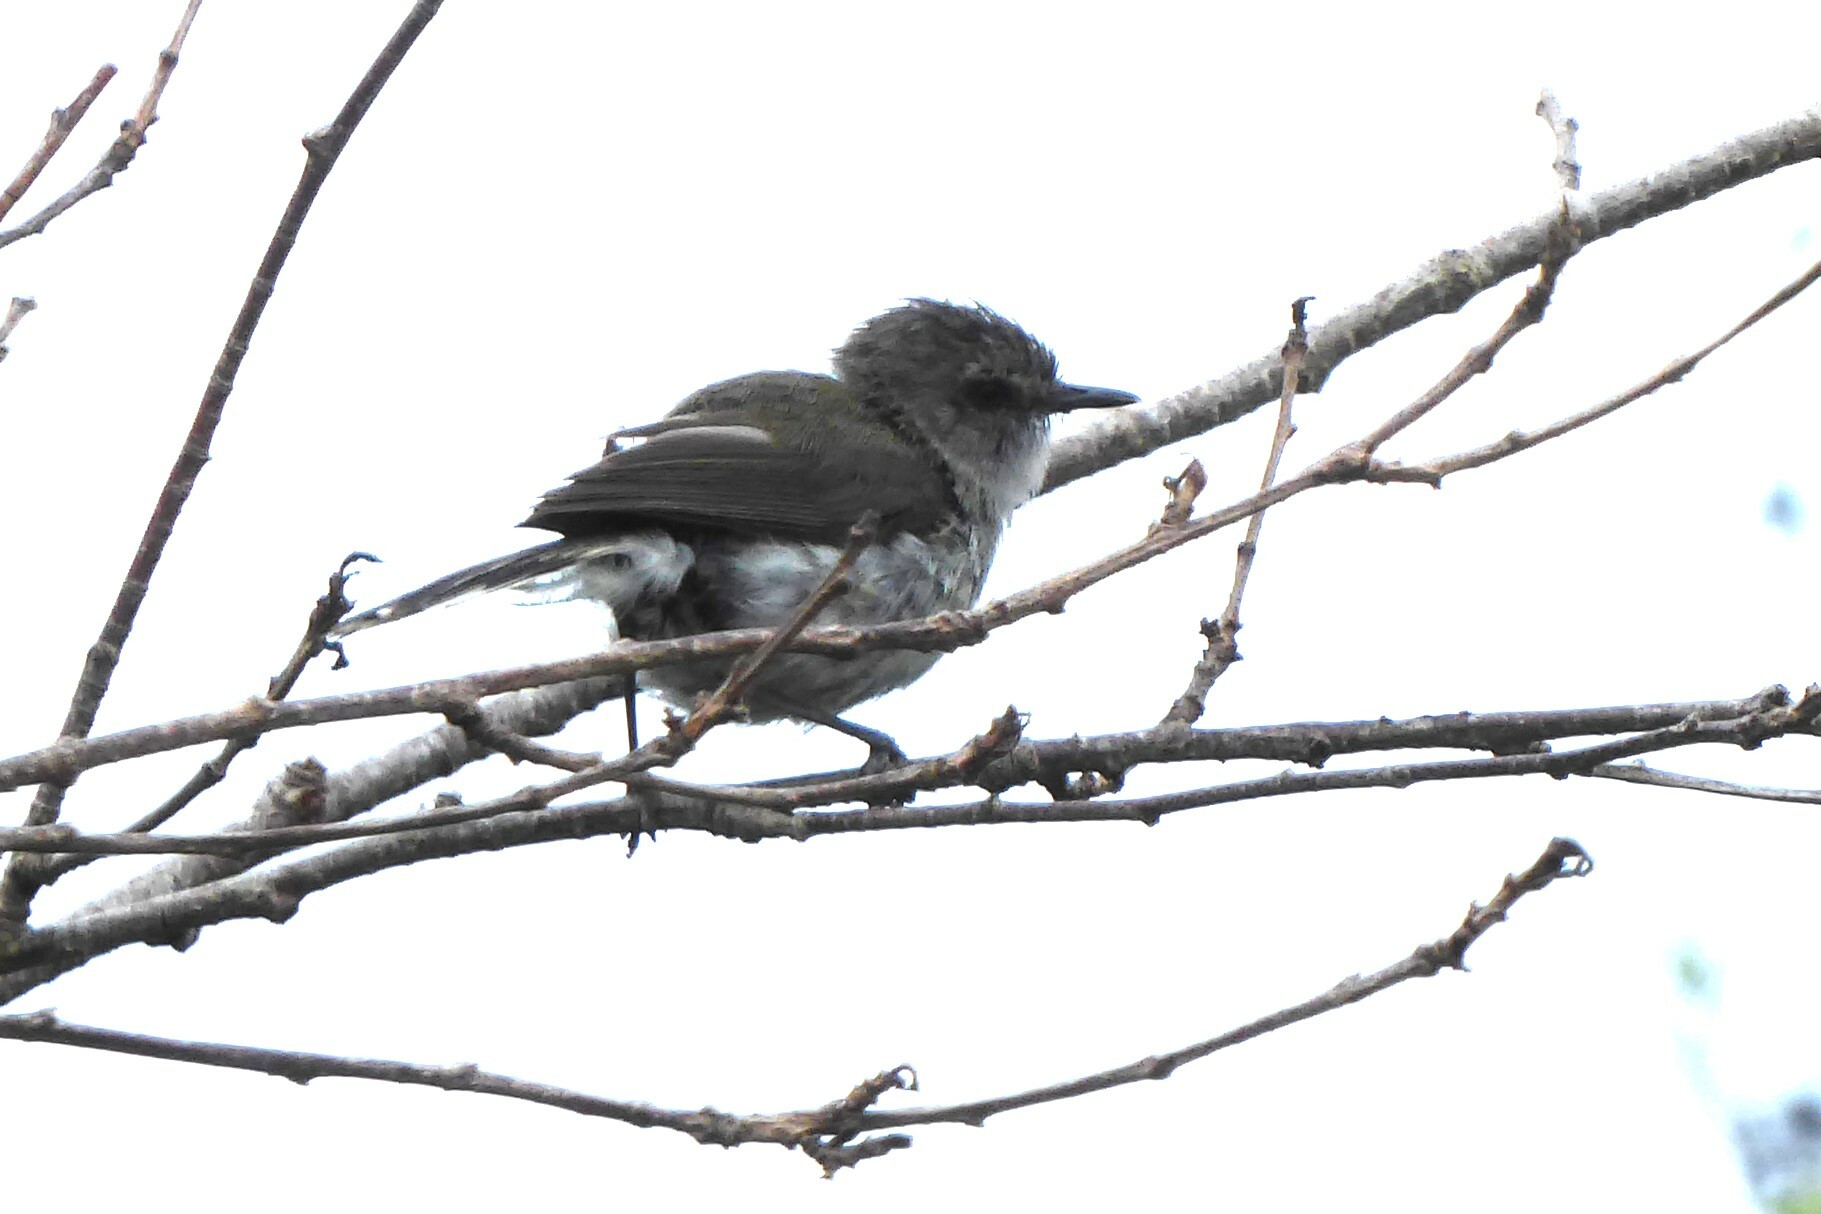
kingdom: Animalia
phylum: Chordata
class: Aves
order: Passeriformes
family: Acanthizidae
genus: Gerygone
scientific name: Gerygone igata
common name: Grey gerygone
